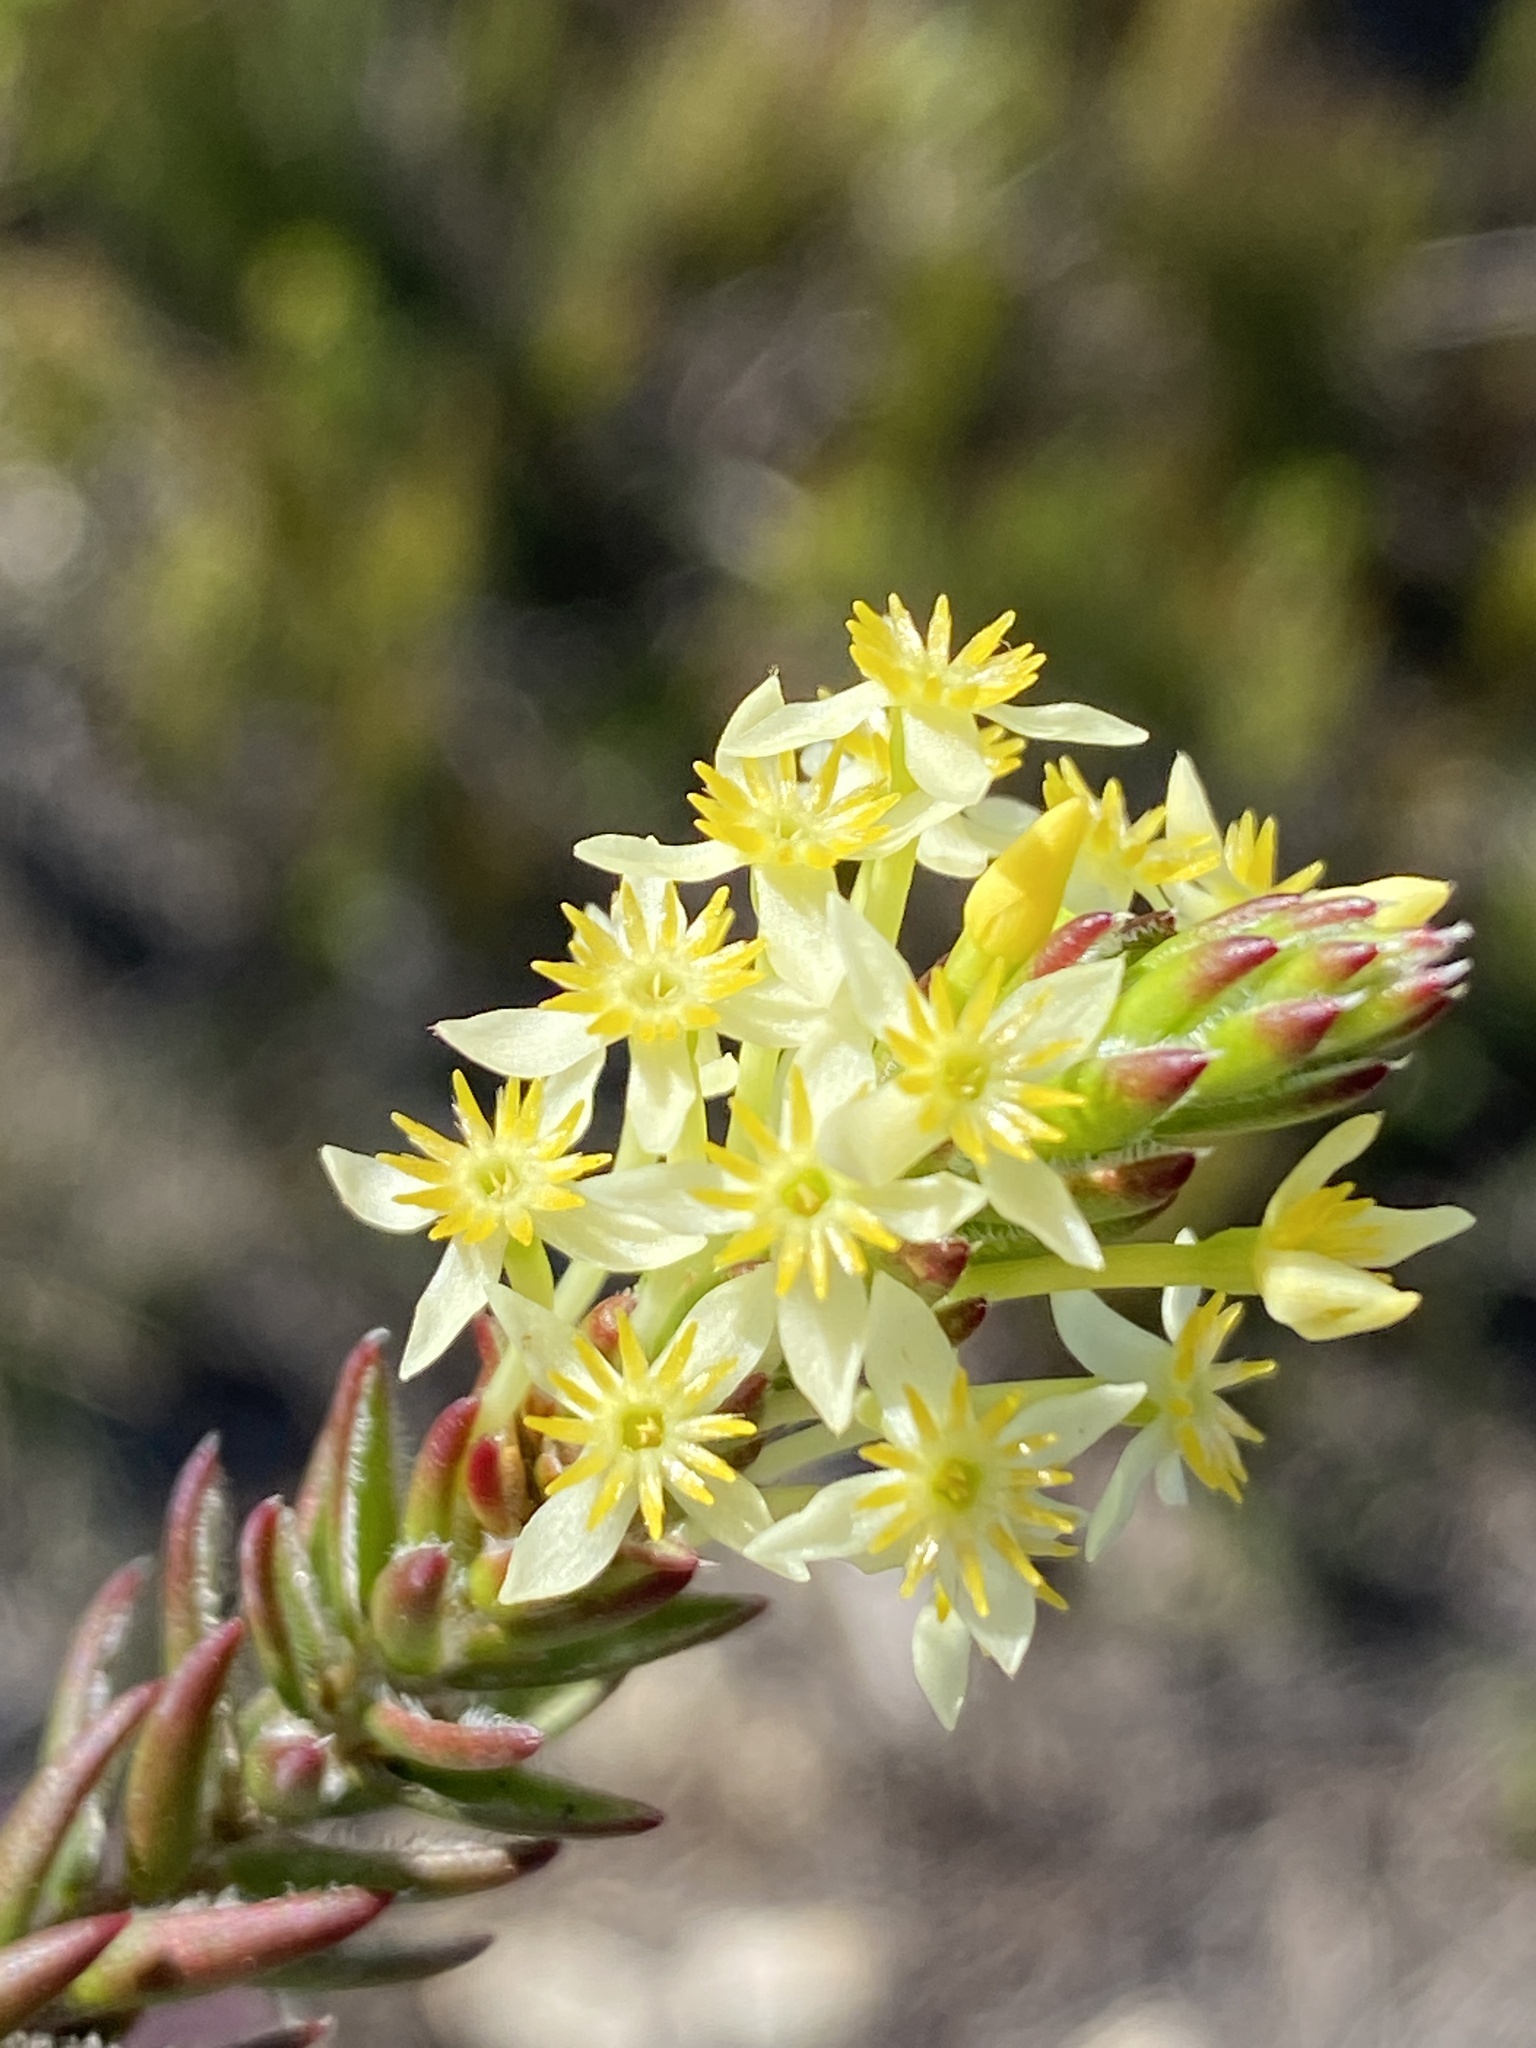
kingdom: Plantae
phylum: Tracheophyta
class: Magnoliopsida
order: Malvales
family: Thymelaeaceae
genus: Struthiola
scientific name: Struthiola rigida
